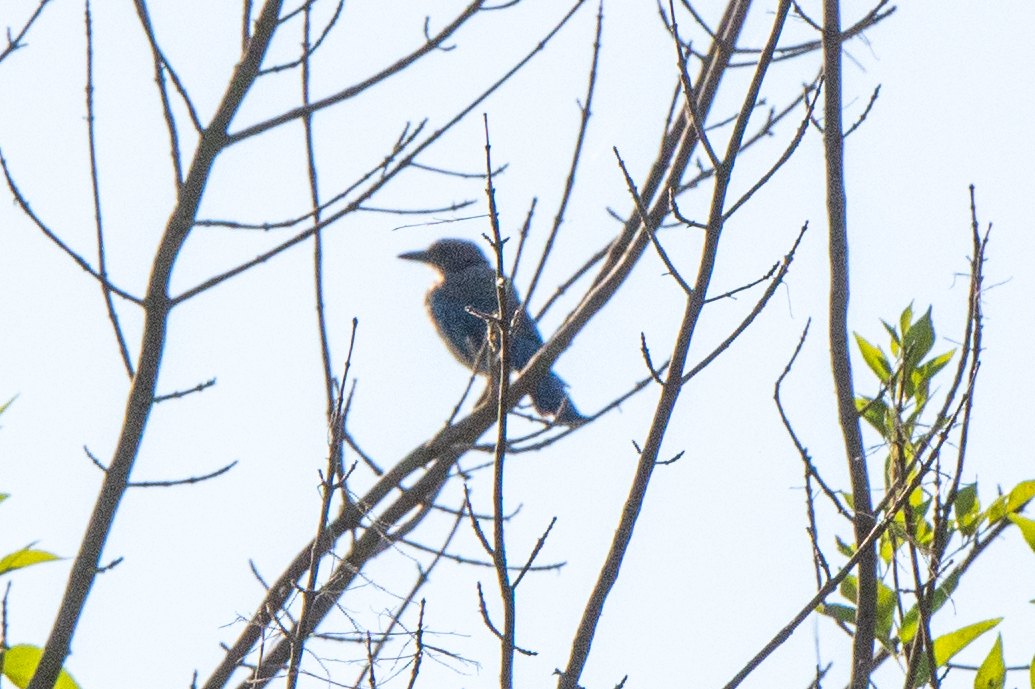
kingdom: Animalia
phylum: Chordata
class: Aves
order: Piciformes
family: Picidae
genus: Colaptes
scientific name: Colaptes auratus
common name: Northern flicker
